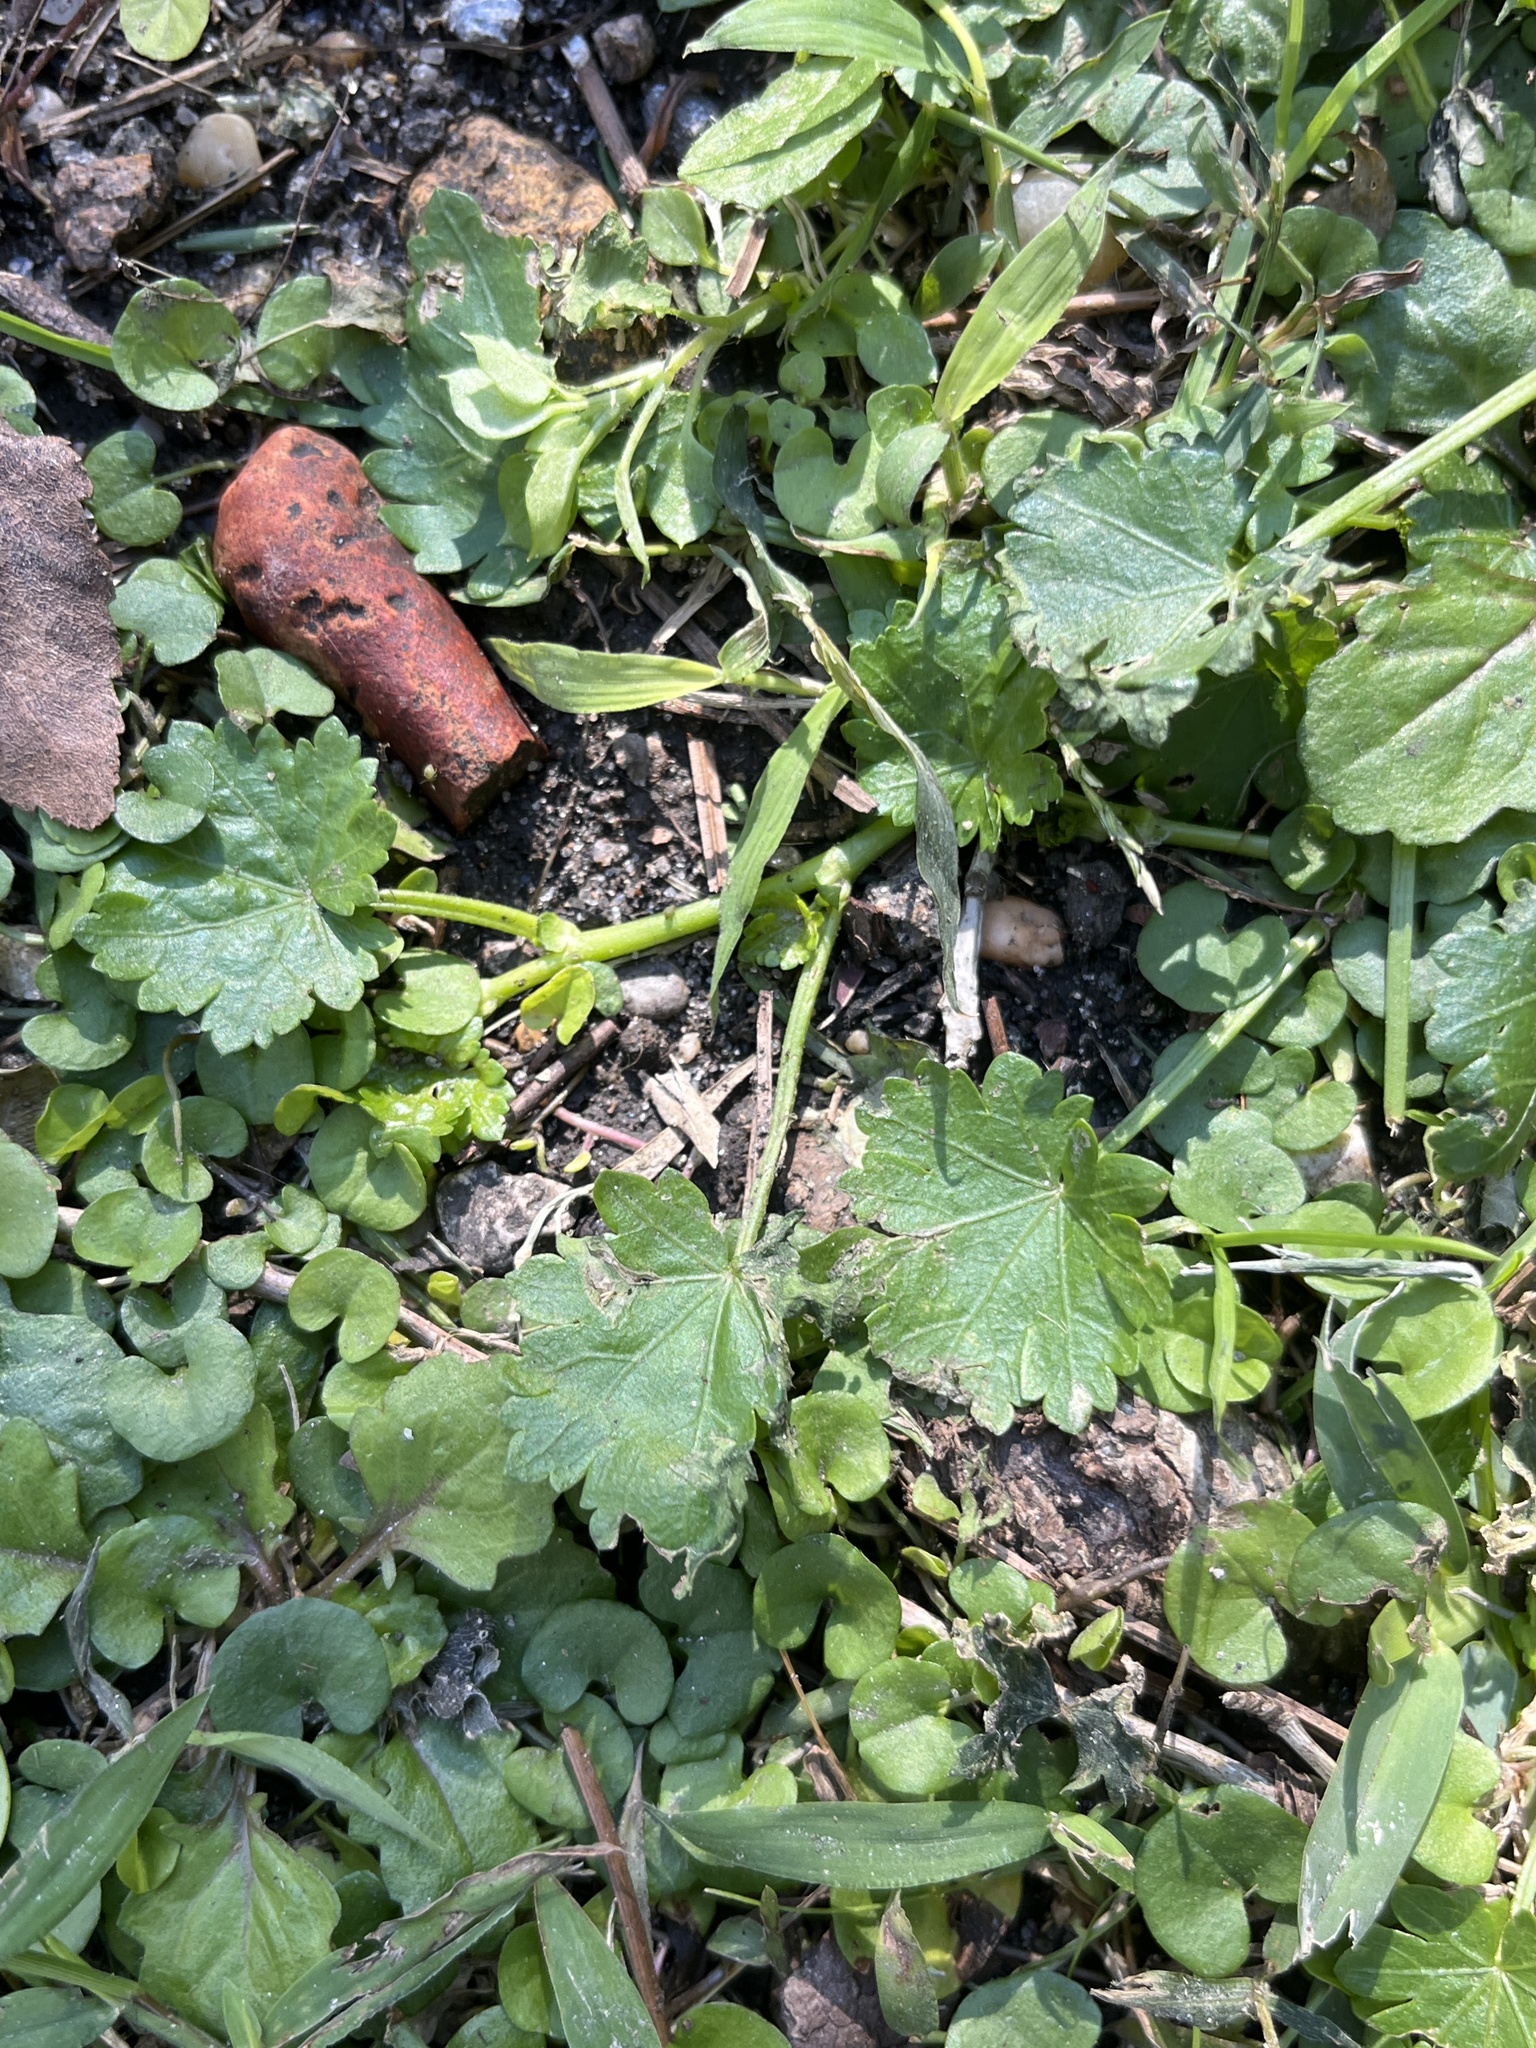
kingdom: Plantae
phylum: Tracheophyta
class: Magnoliopsida
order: Malvales
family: Malvaceae
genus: Modiola
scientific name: Modiola caroliniana
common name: Carolina bristlemallow
